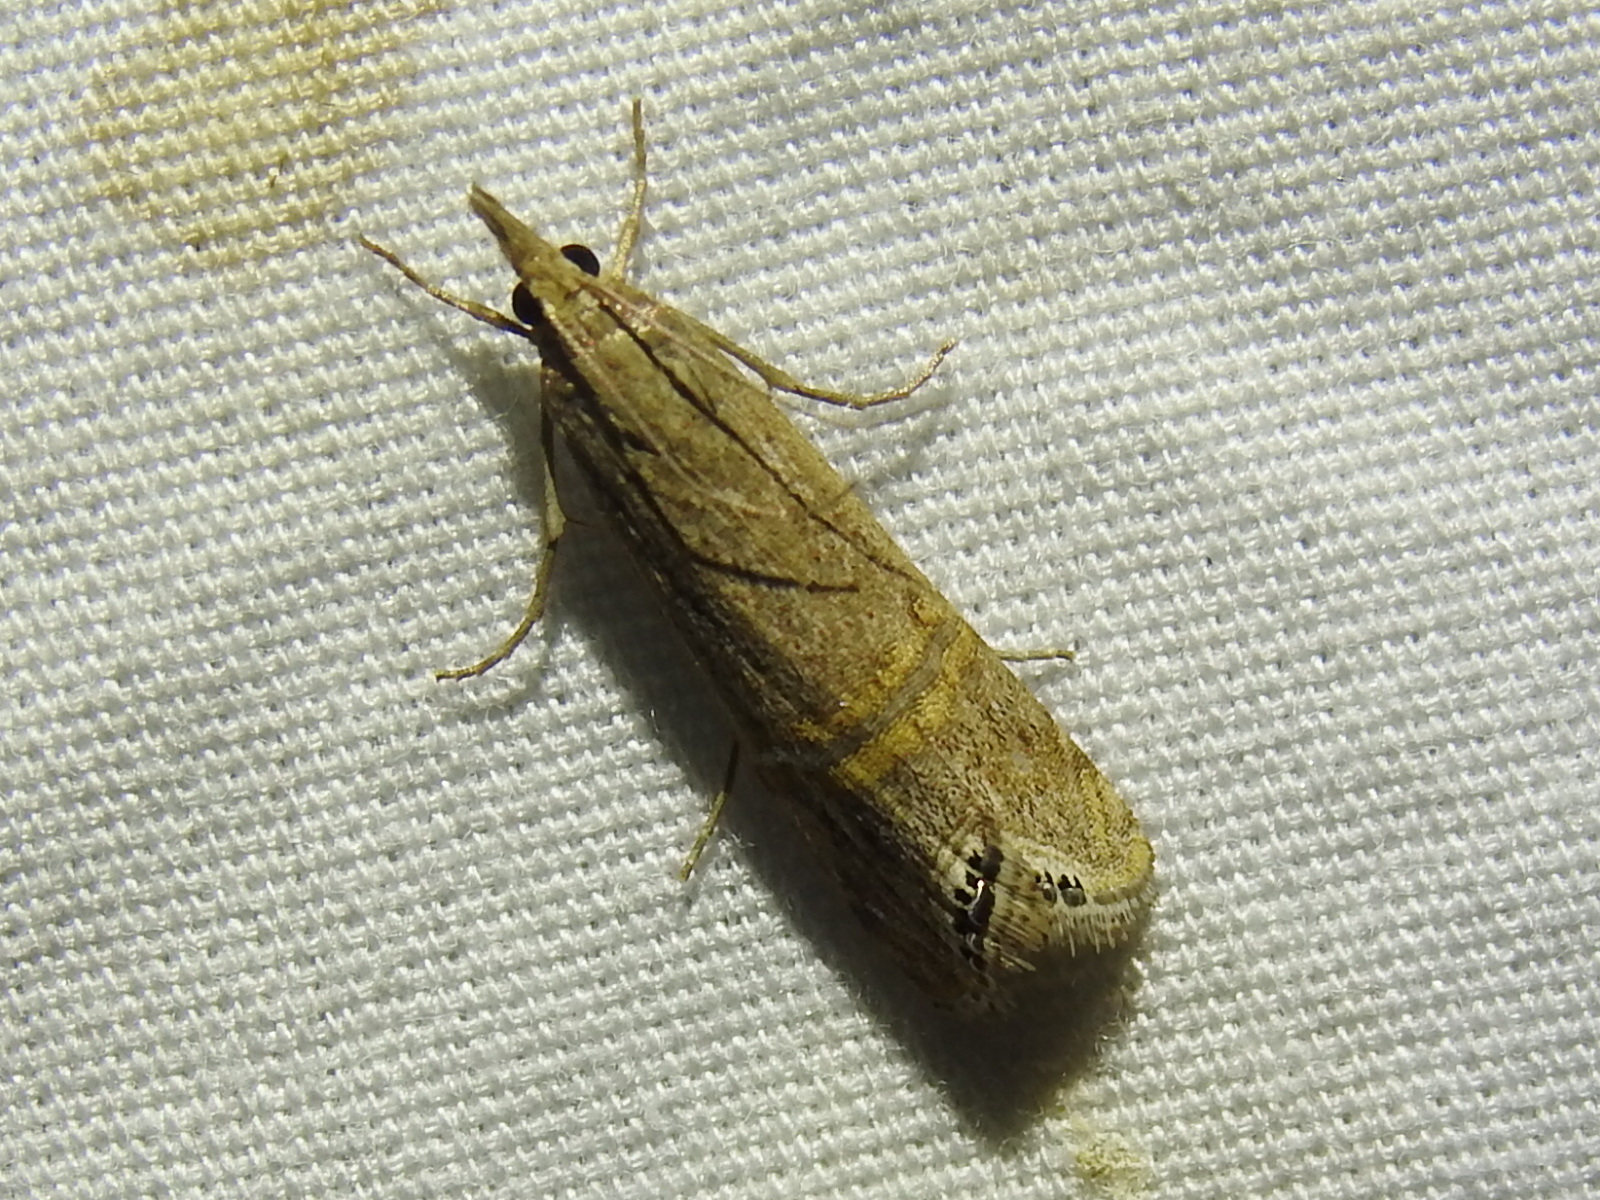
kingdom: Animalia
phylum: Arthropoda
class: Insecta
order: Lepidoptera
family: Crambidae
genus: Euchromius
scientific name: Euchromius ocellea
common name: Necklace veneer moth
